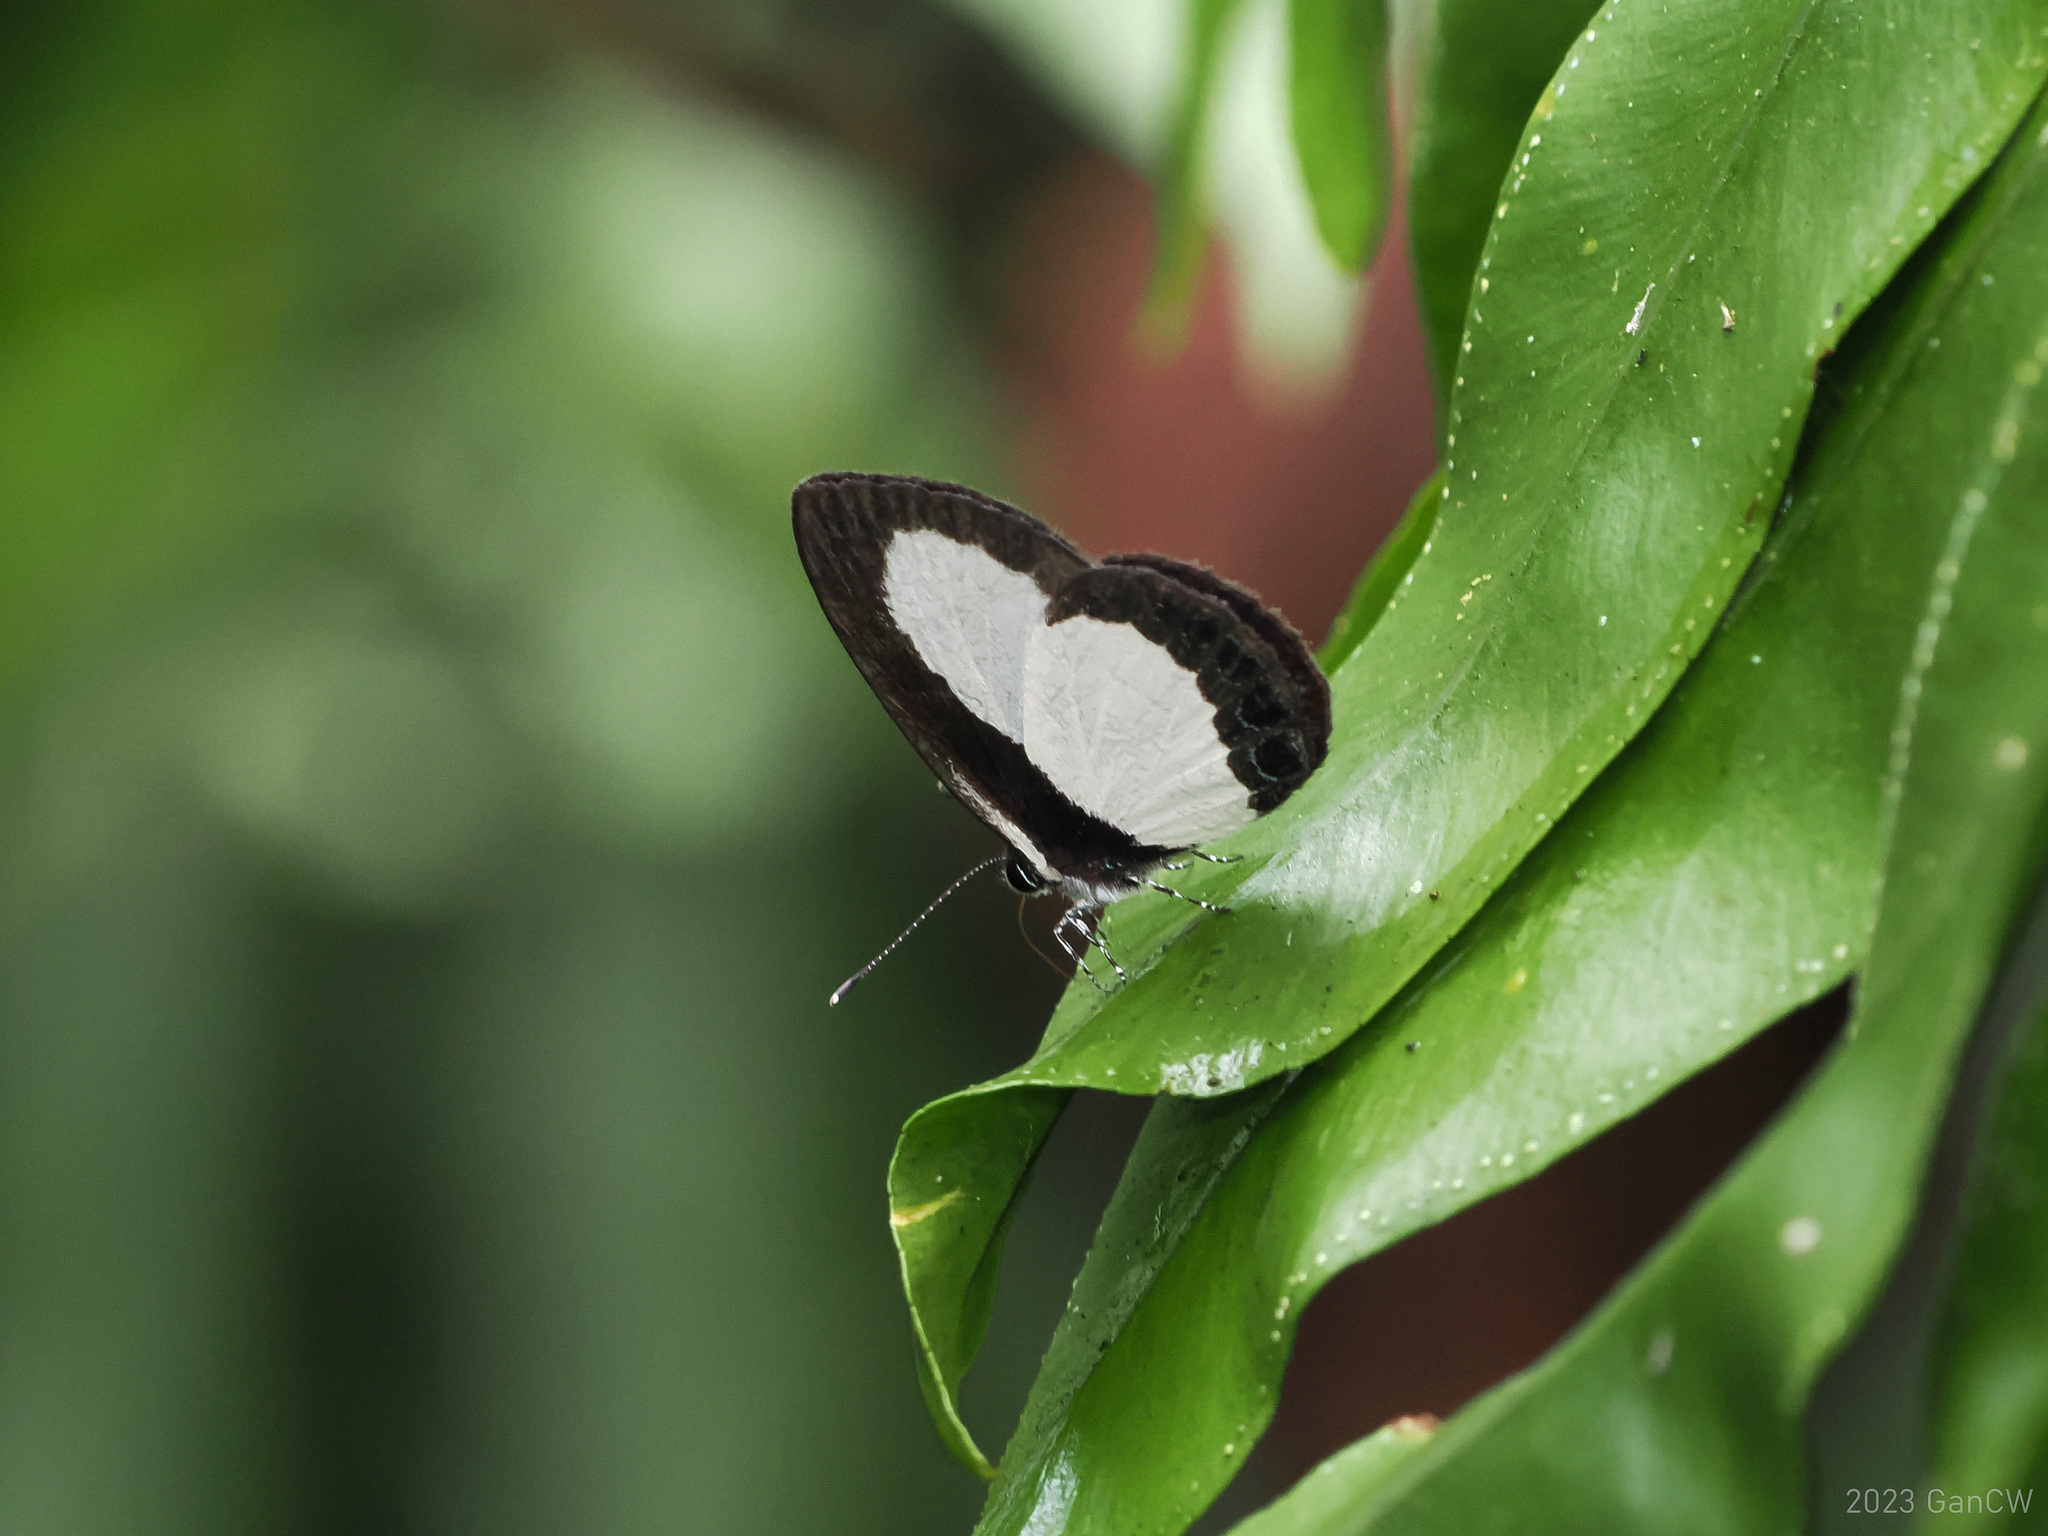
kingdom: Animalia
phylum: Arthropoda
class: Insecta
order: Lepidoptera
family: Lycaenidae
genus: Psychonotis
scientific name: Psychonotis
